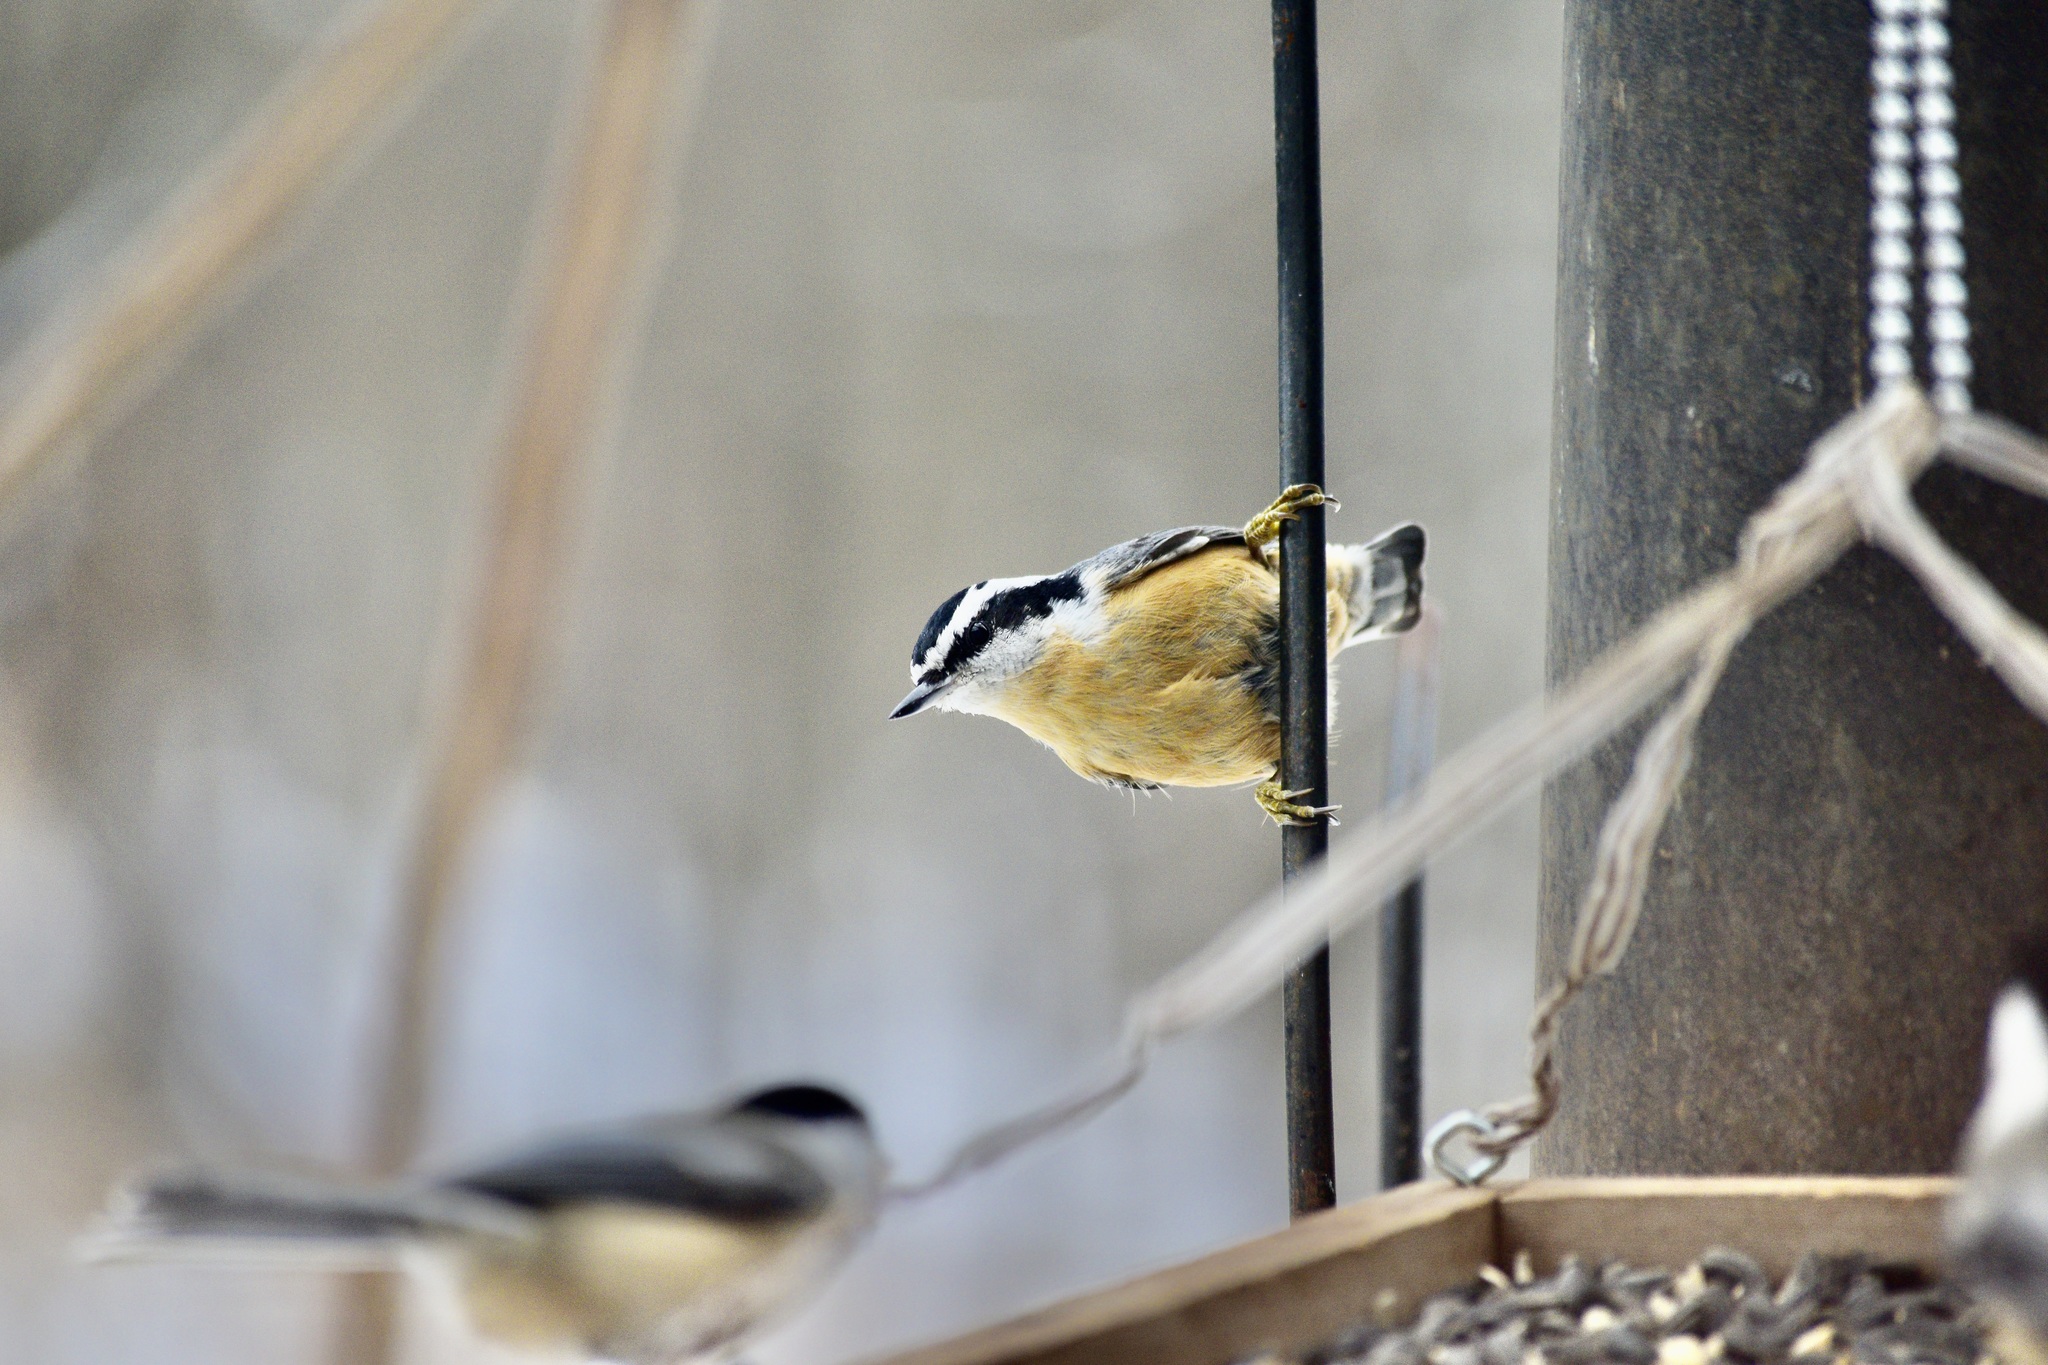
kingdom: Animalia
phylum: Chordata
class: Aves
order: Passeriformes
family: Sittidae
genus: Sitta
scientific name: Sitta canadensis
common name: Red-breasted nuthatch
